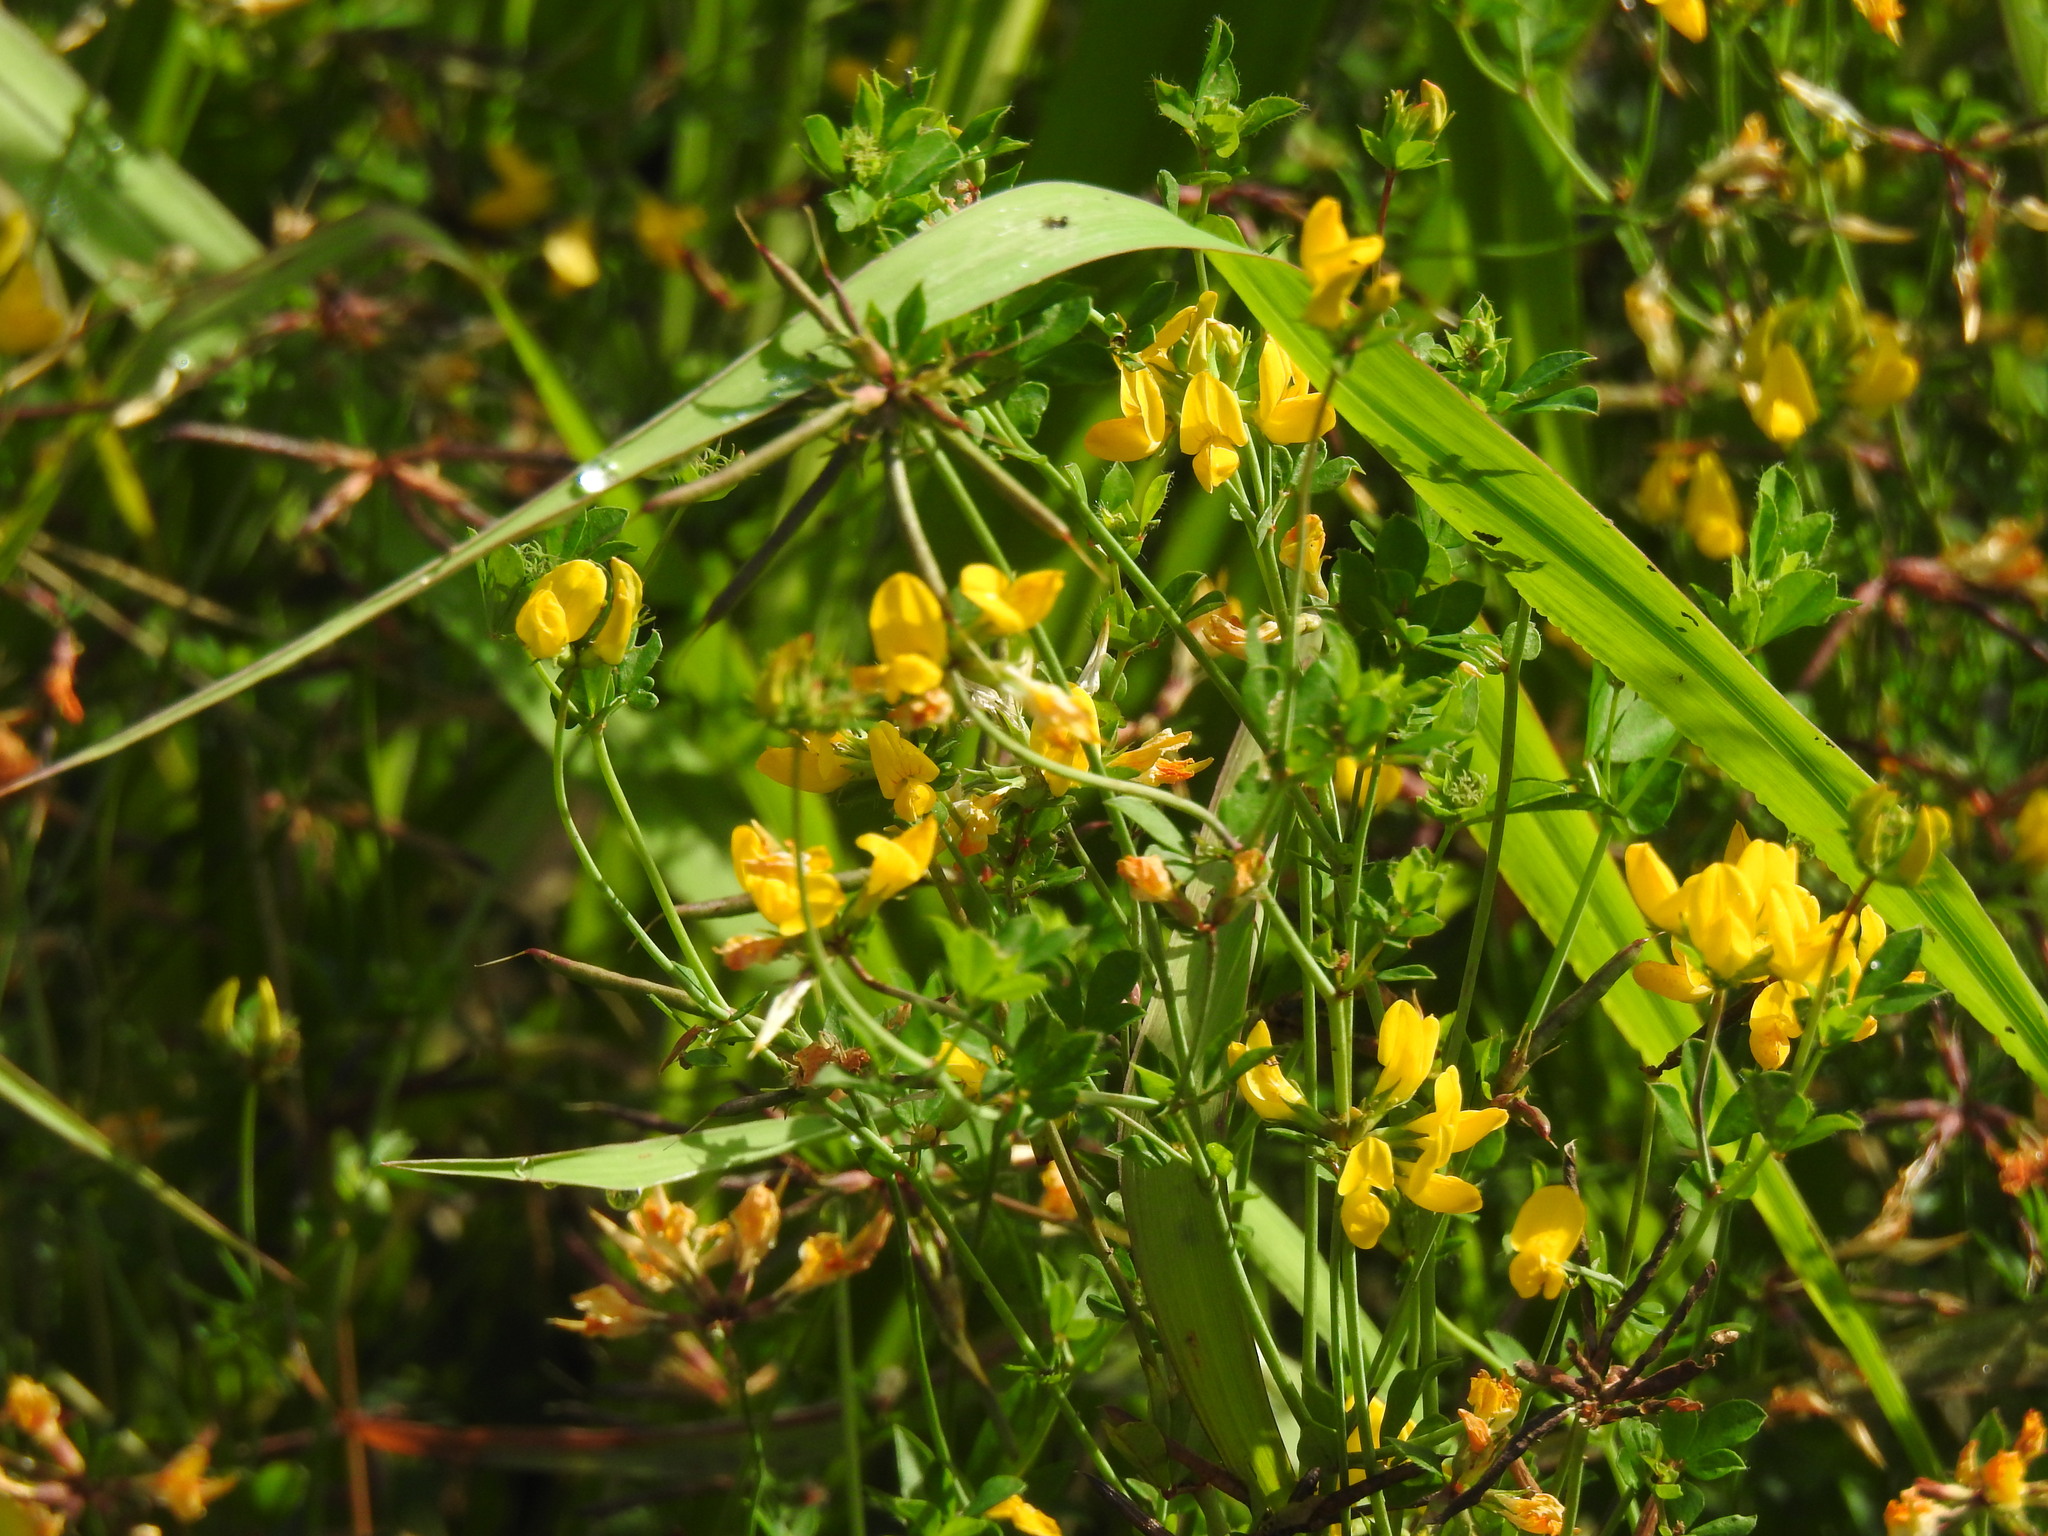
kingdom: Plantae
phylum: Tracheophyta
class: Magnoliopsida
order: Fabales
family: Fabaceae
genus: Lotus
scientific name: Lotus pedunculatus
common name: Greater birdsfoot-trefoil
